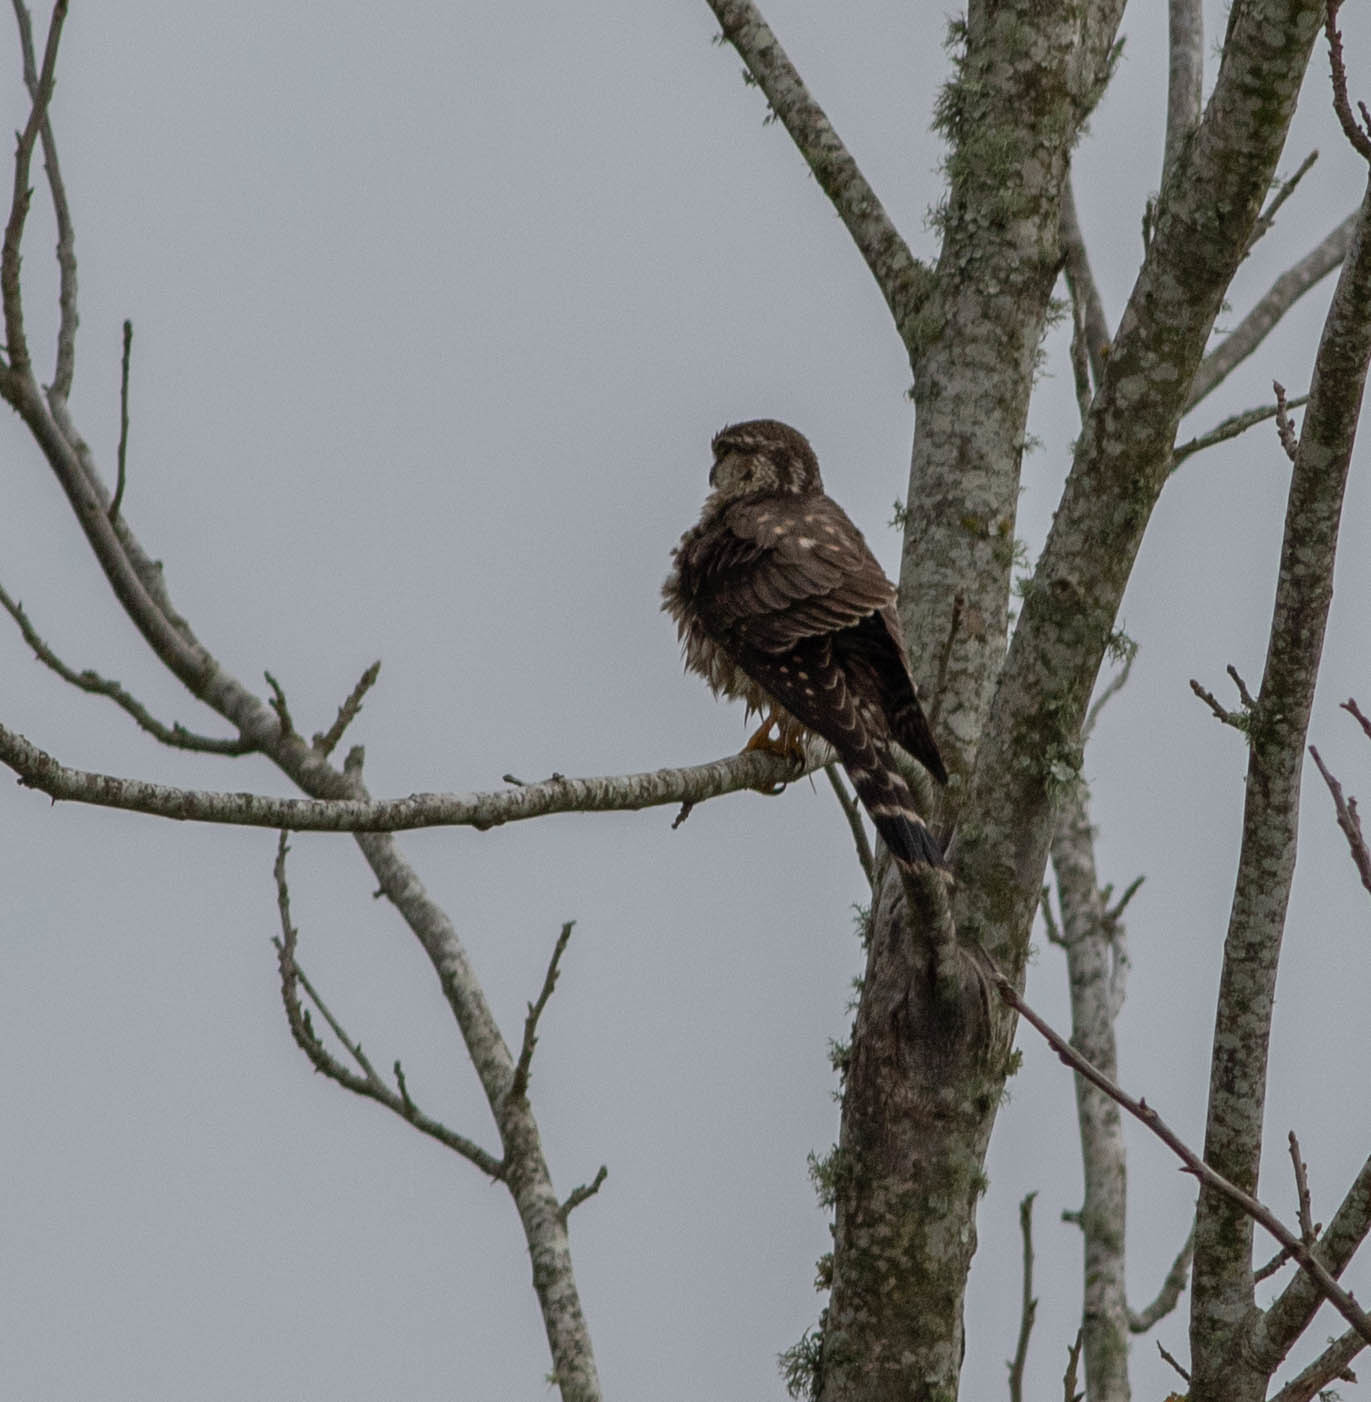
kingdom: Animalia
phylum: Chordata
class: Aves
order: Falconiformes
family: Falconidae
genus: Falco
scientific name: Falco columbarius
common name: Merlin
